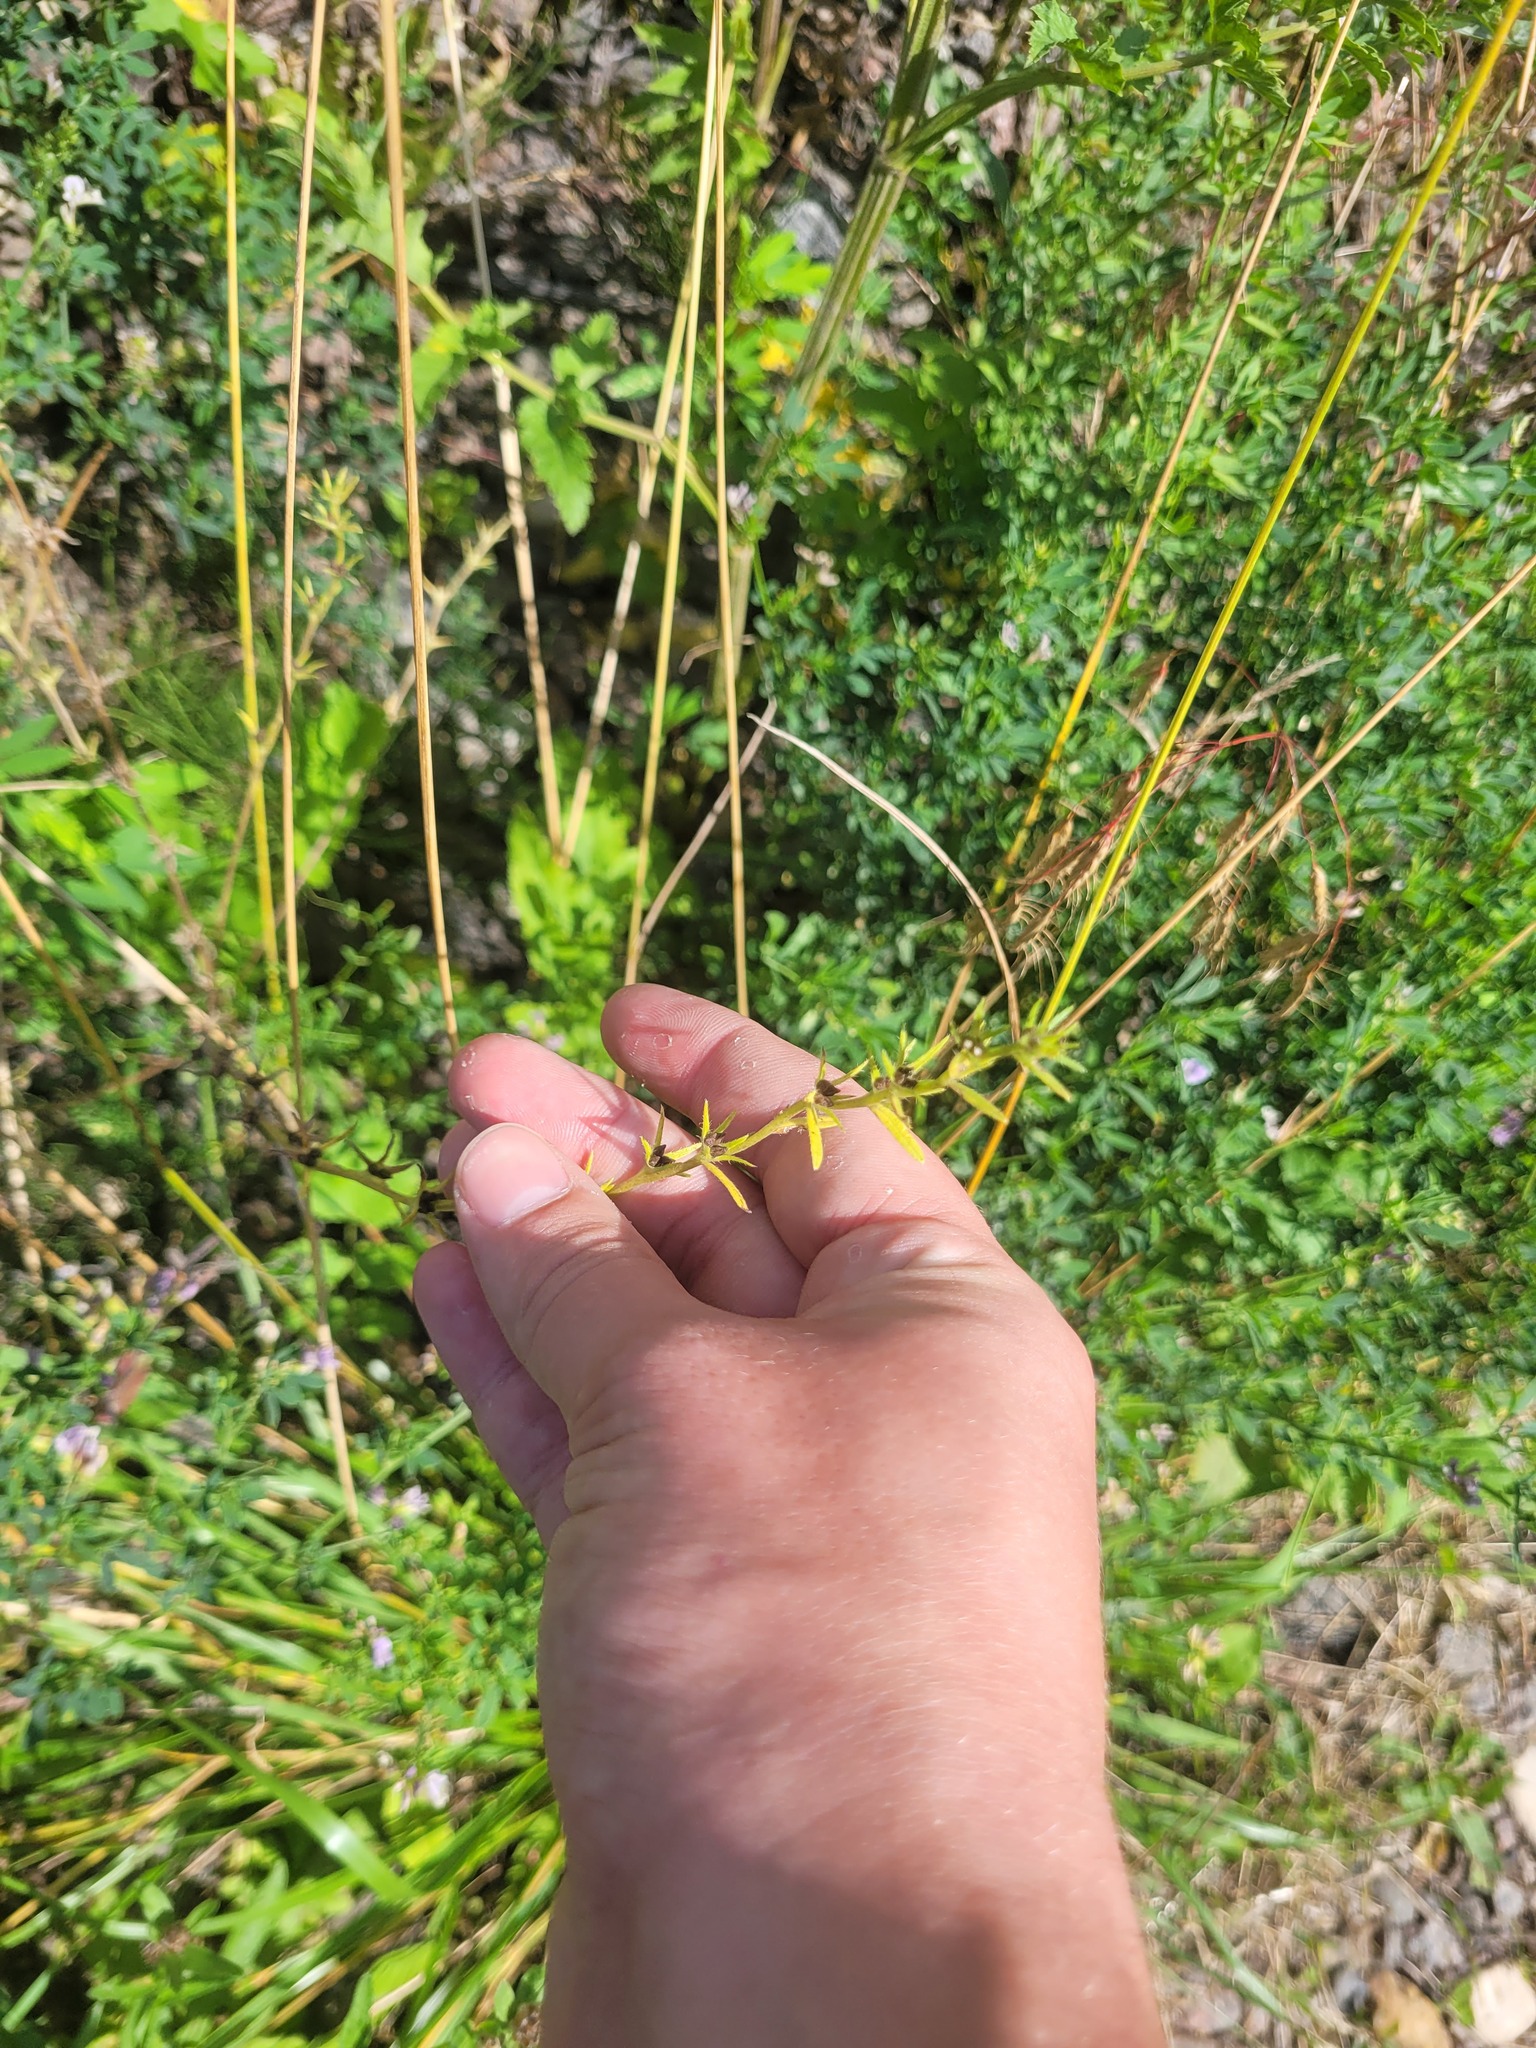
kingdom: Plantae
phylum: Tracheophyta
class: Magnoliopsida
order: Boraginales
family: Boraginaceae
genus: Buglossoides
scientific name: Buglossoides arvensis
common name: Corn gromwell
